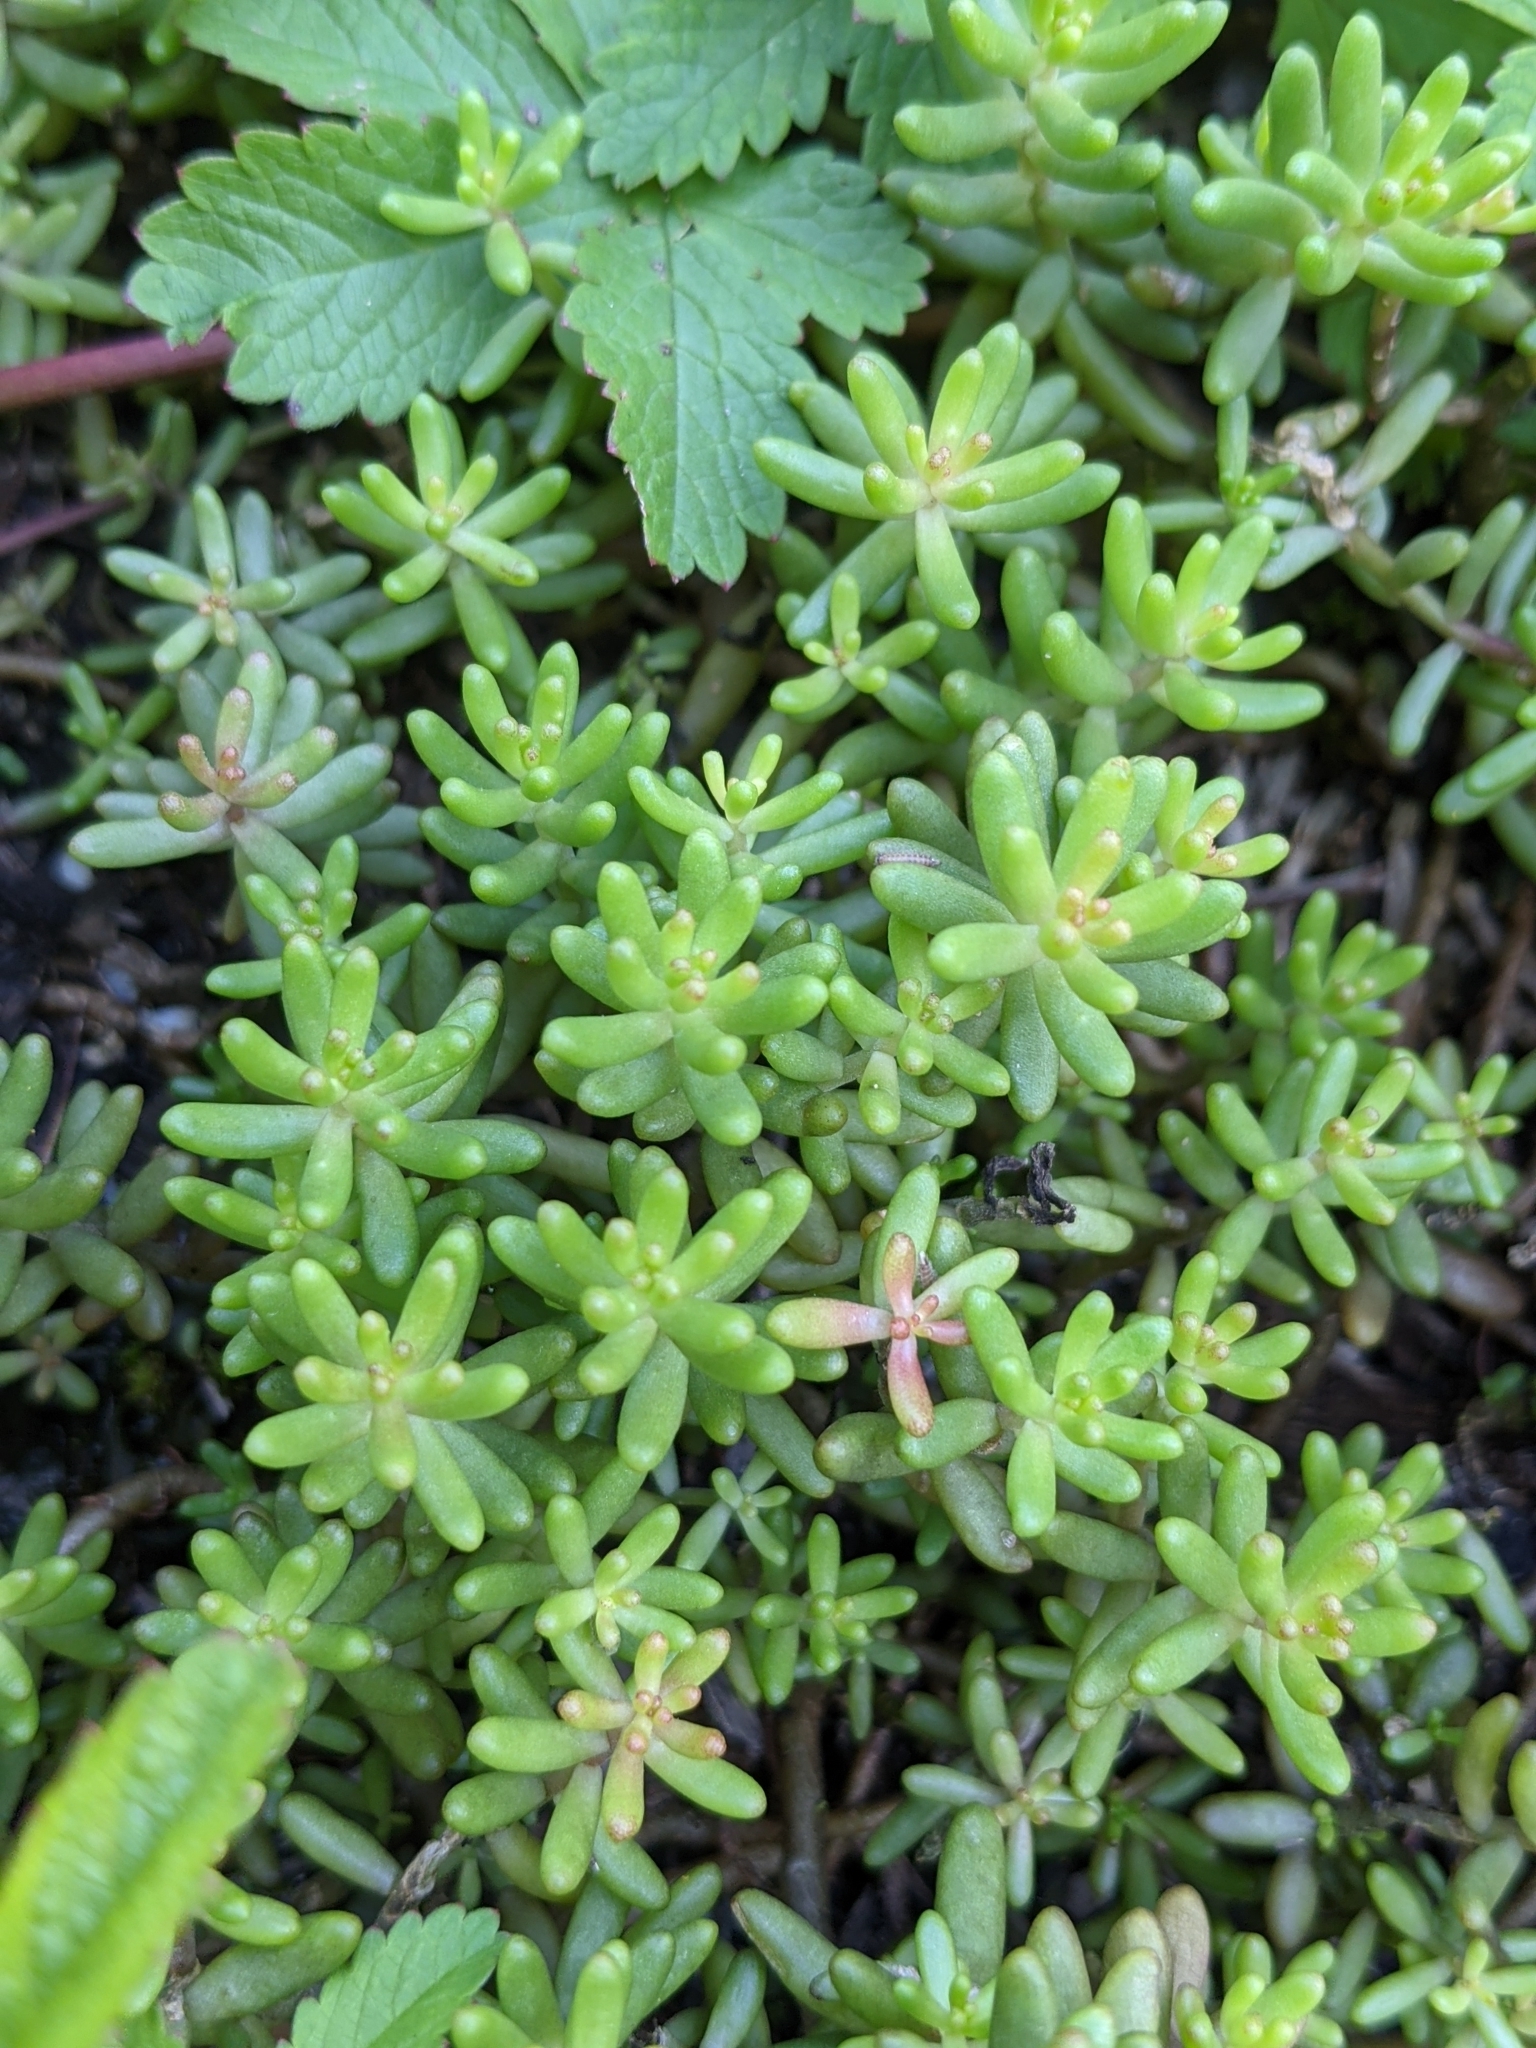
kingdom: Plantae
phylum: Tracheophyta
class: Magnoliopsida
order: Saxifragales
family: Crassulaceae
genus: Sedum
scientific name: Sedum album
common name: White stonecrop
